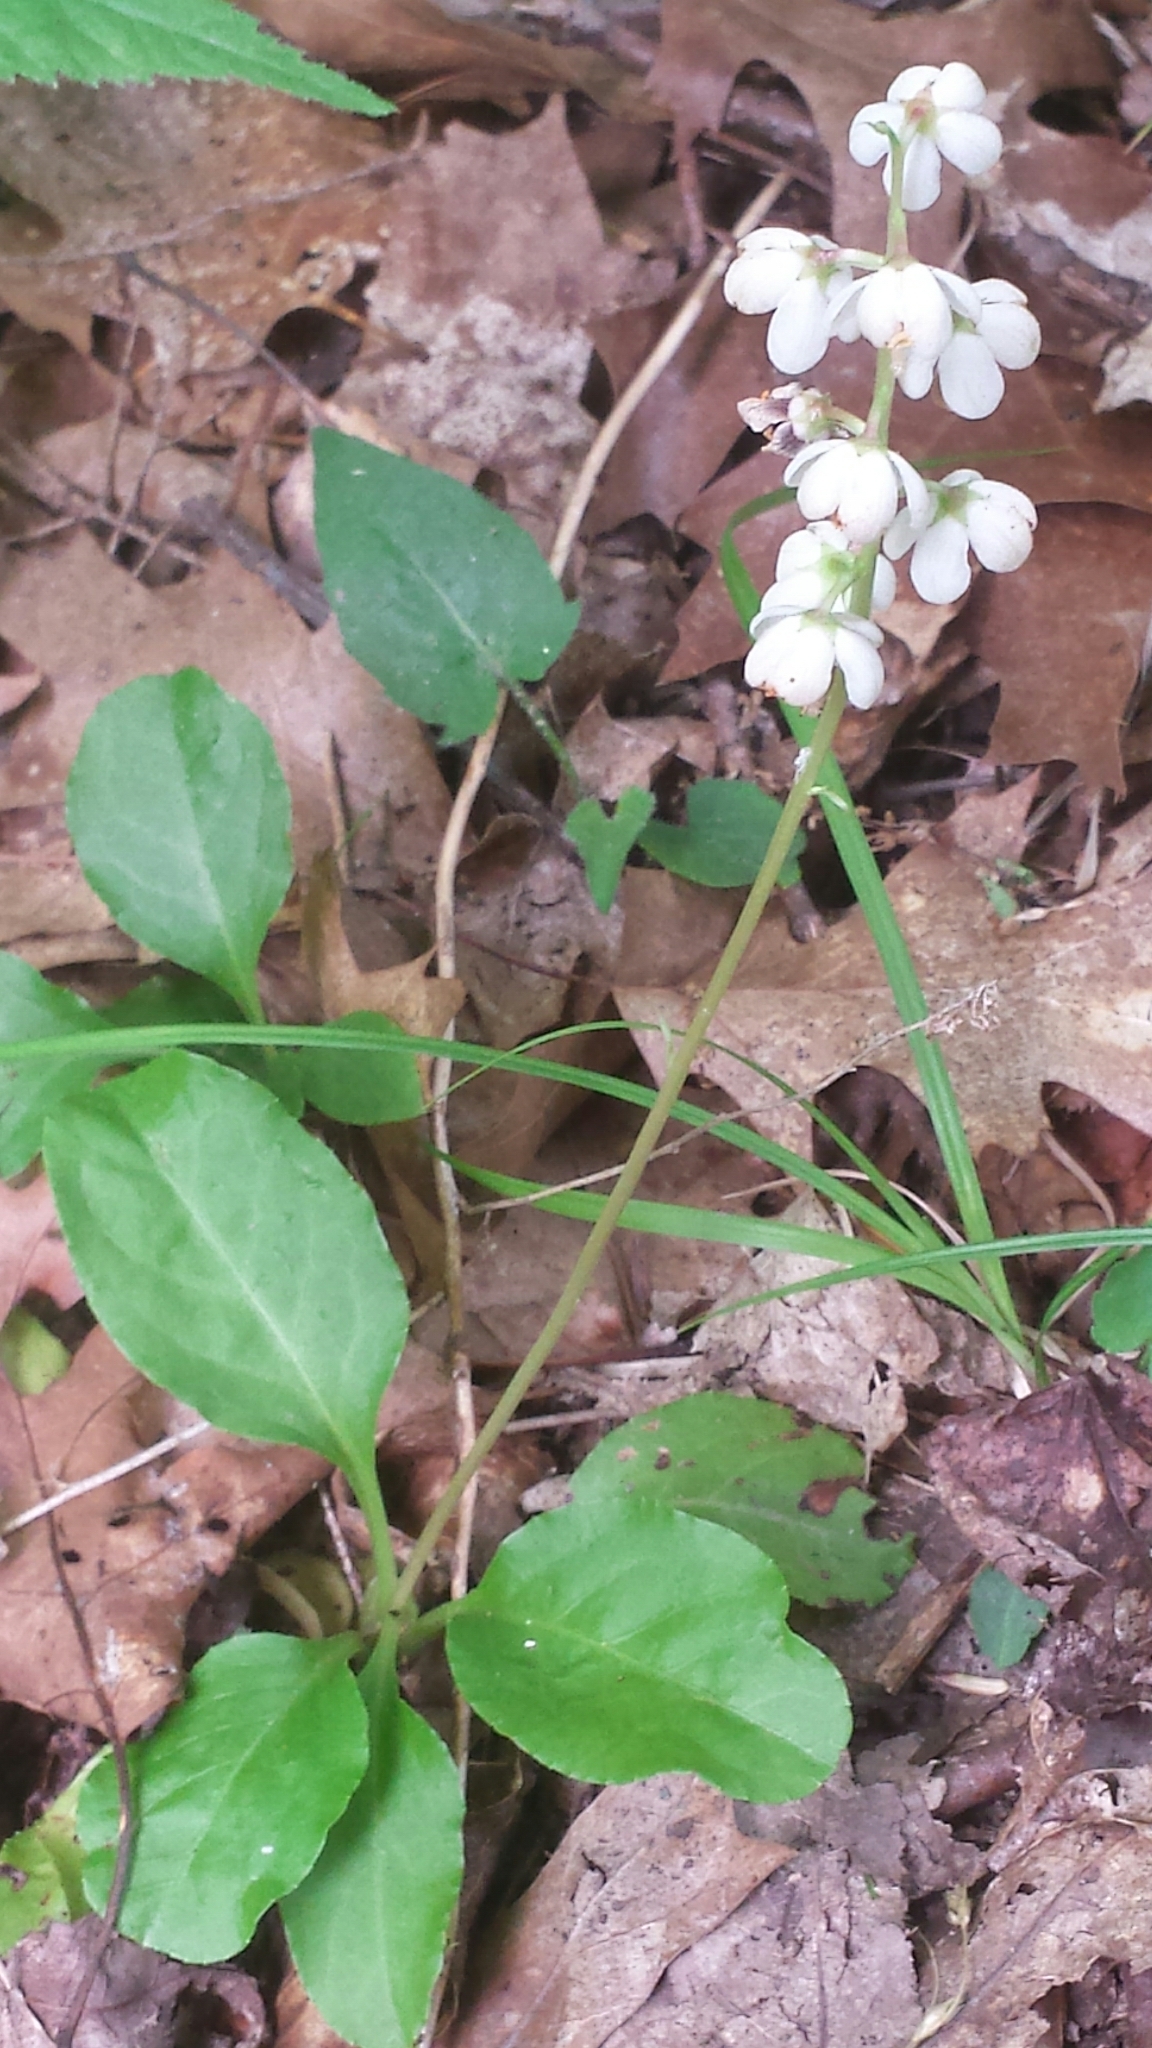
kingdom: Plantae
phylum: Tracheophyta
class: Magnoliopsida
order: Ericales
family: Ericaceae
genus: Pyrola
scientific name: Pyrola elliptica
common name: Shinleaf
